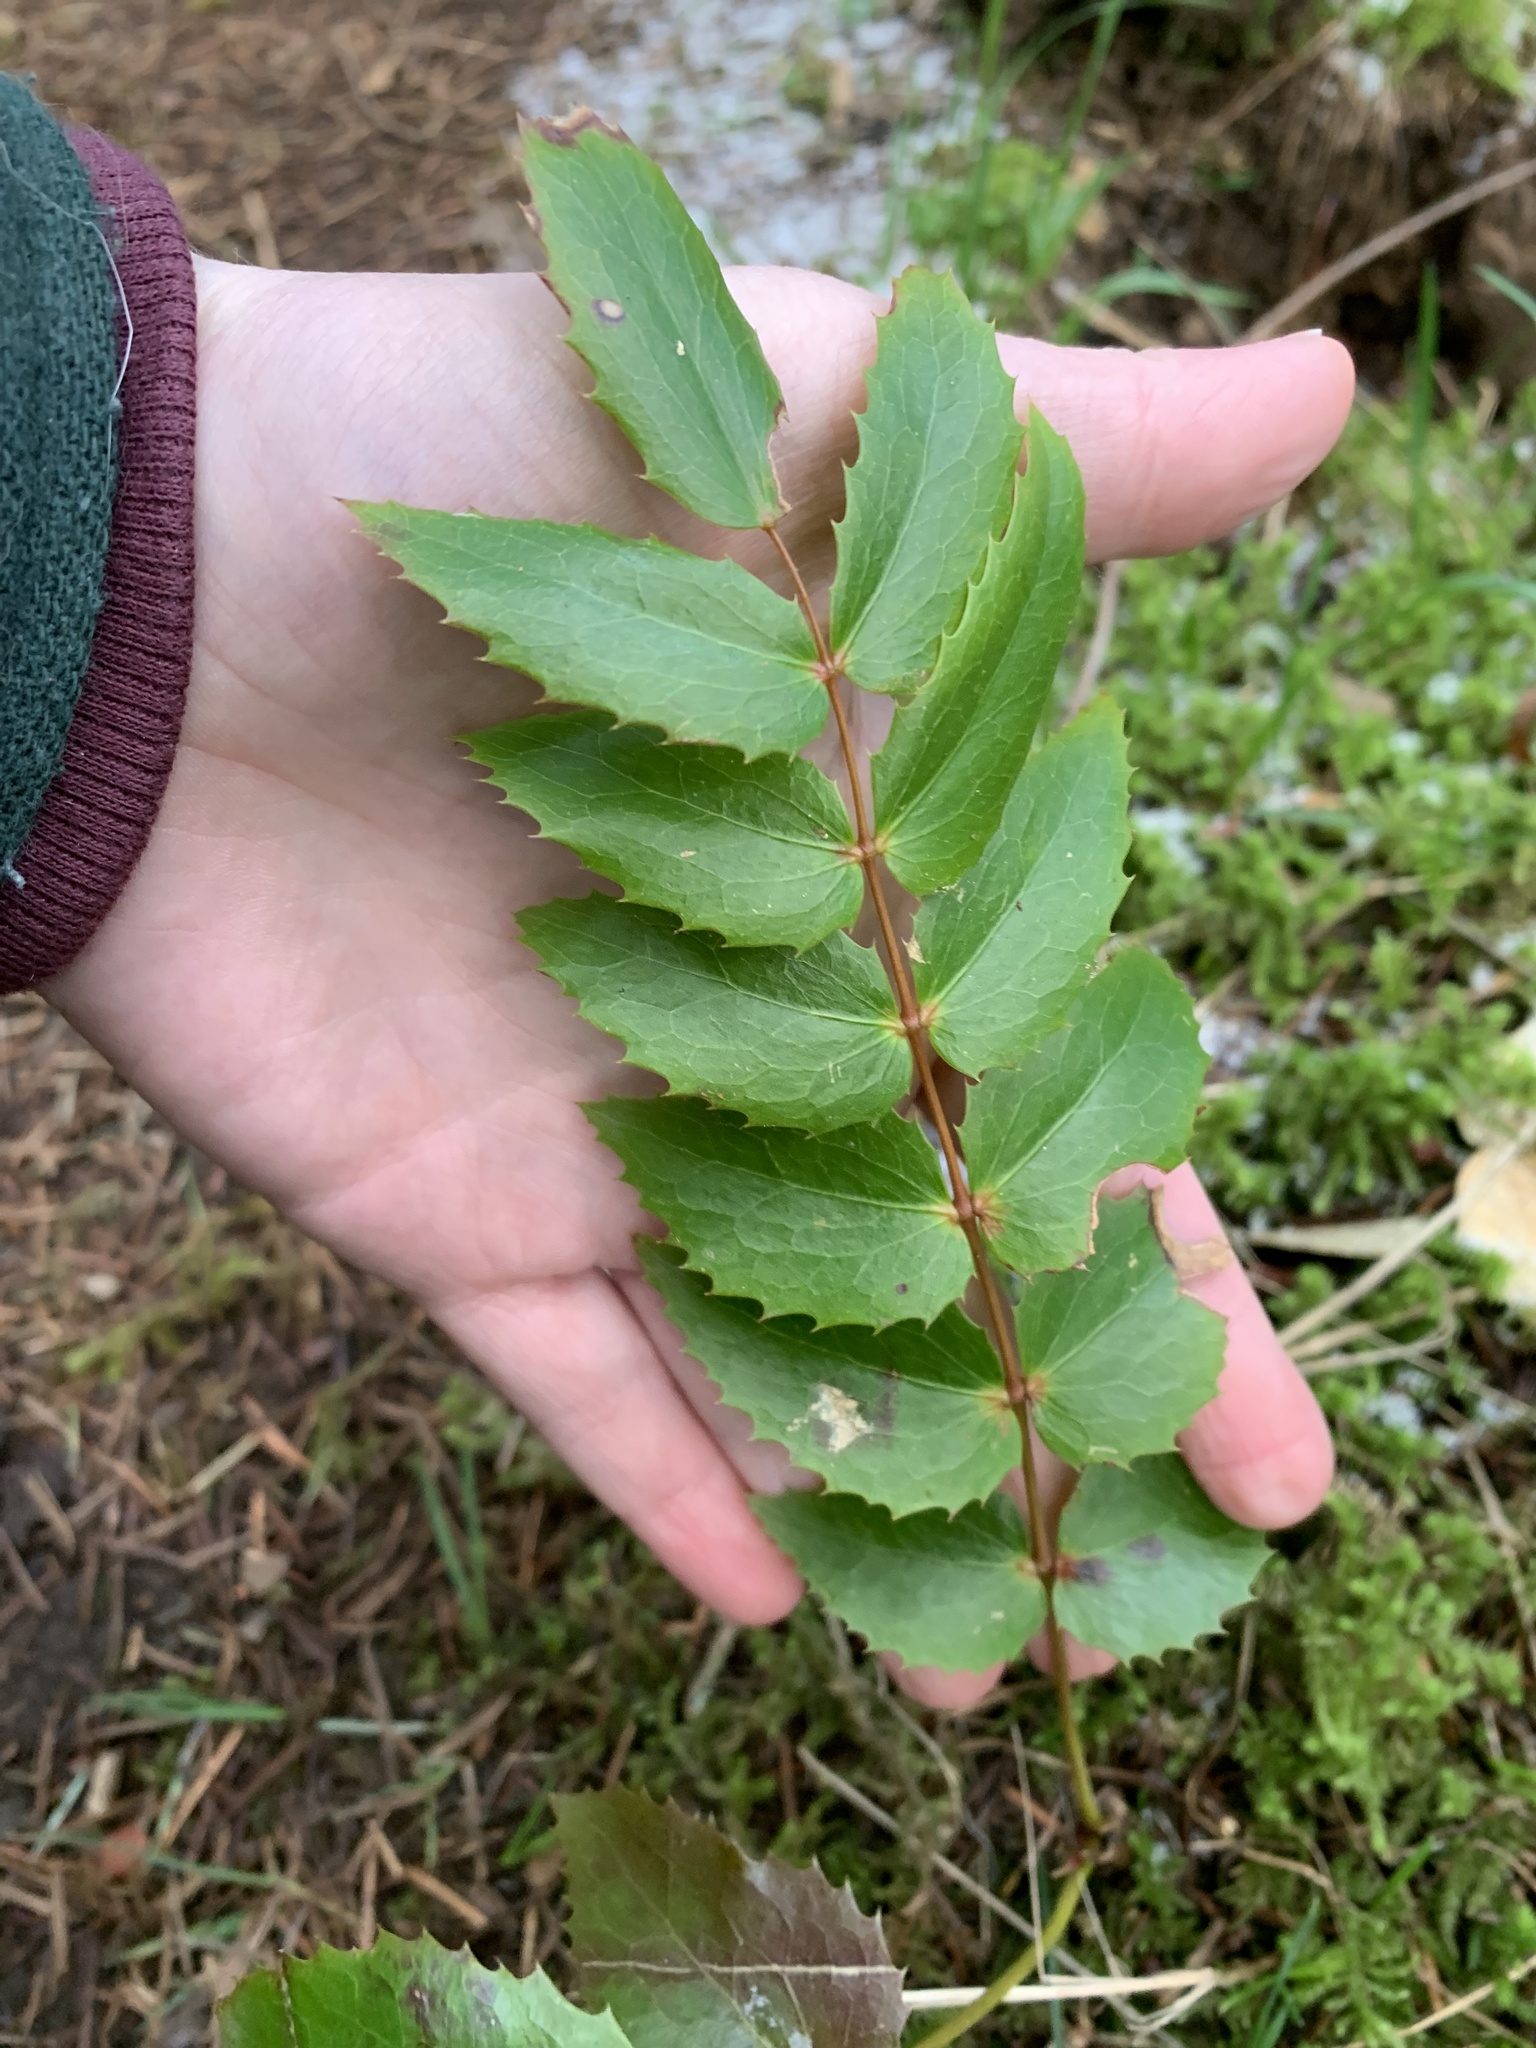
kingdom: Plantae
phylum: Tracheophyta
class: Magnoliopsida
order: Ranunculales
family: Berberidaceae
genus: Mahonia
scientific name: Mahonia nervosa
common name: Cascade oregon-grape
